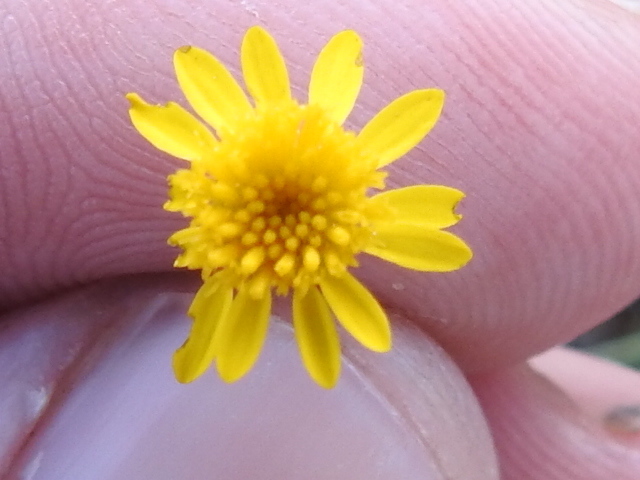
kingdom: Plantae
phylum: Tracheophyta
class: Magnoliopsida
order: Asterales
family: Asteraceae
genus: Thymophylla
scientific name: Thymophylla pentachaeta
